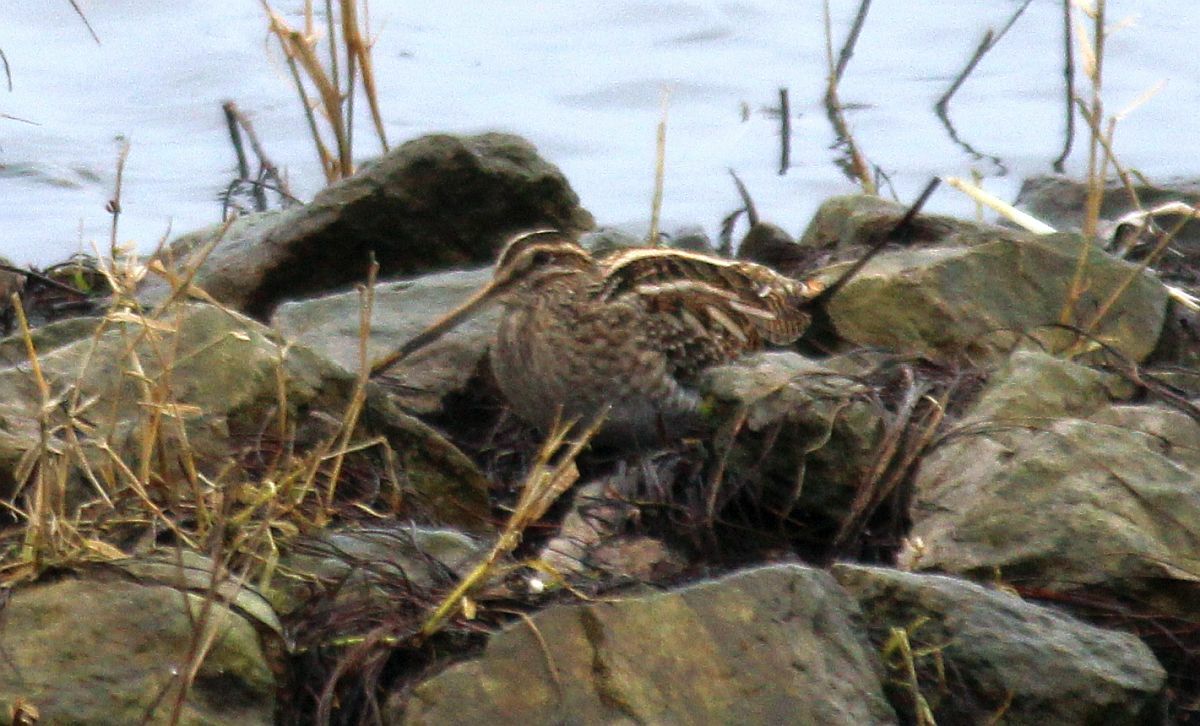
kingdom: Animalia
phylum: Chordata
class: Aves
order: Charadriiformes
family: Scolopacidae
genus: Gallinago
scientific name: Gallinago gallinago
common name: Common snipe
